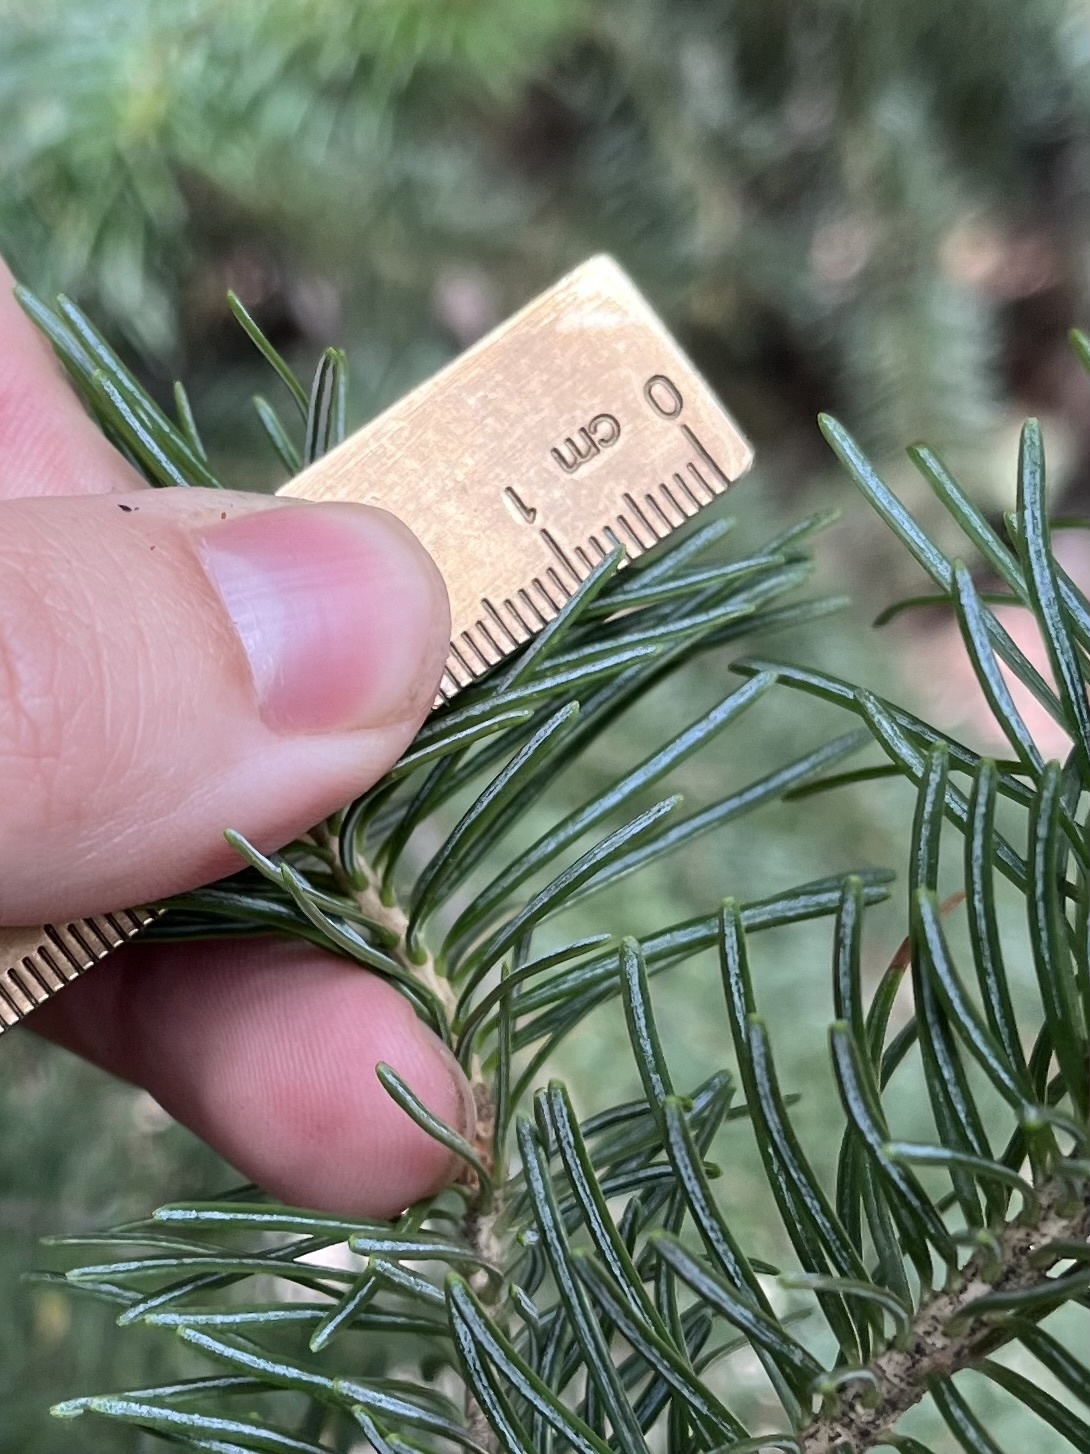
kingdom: Plantae
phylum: Tracheophyta
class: Pinopsida
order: Pinales
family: Pinaceae
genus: Abies
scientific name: Abies lasiocarpa
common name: Subalpine fir
